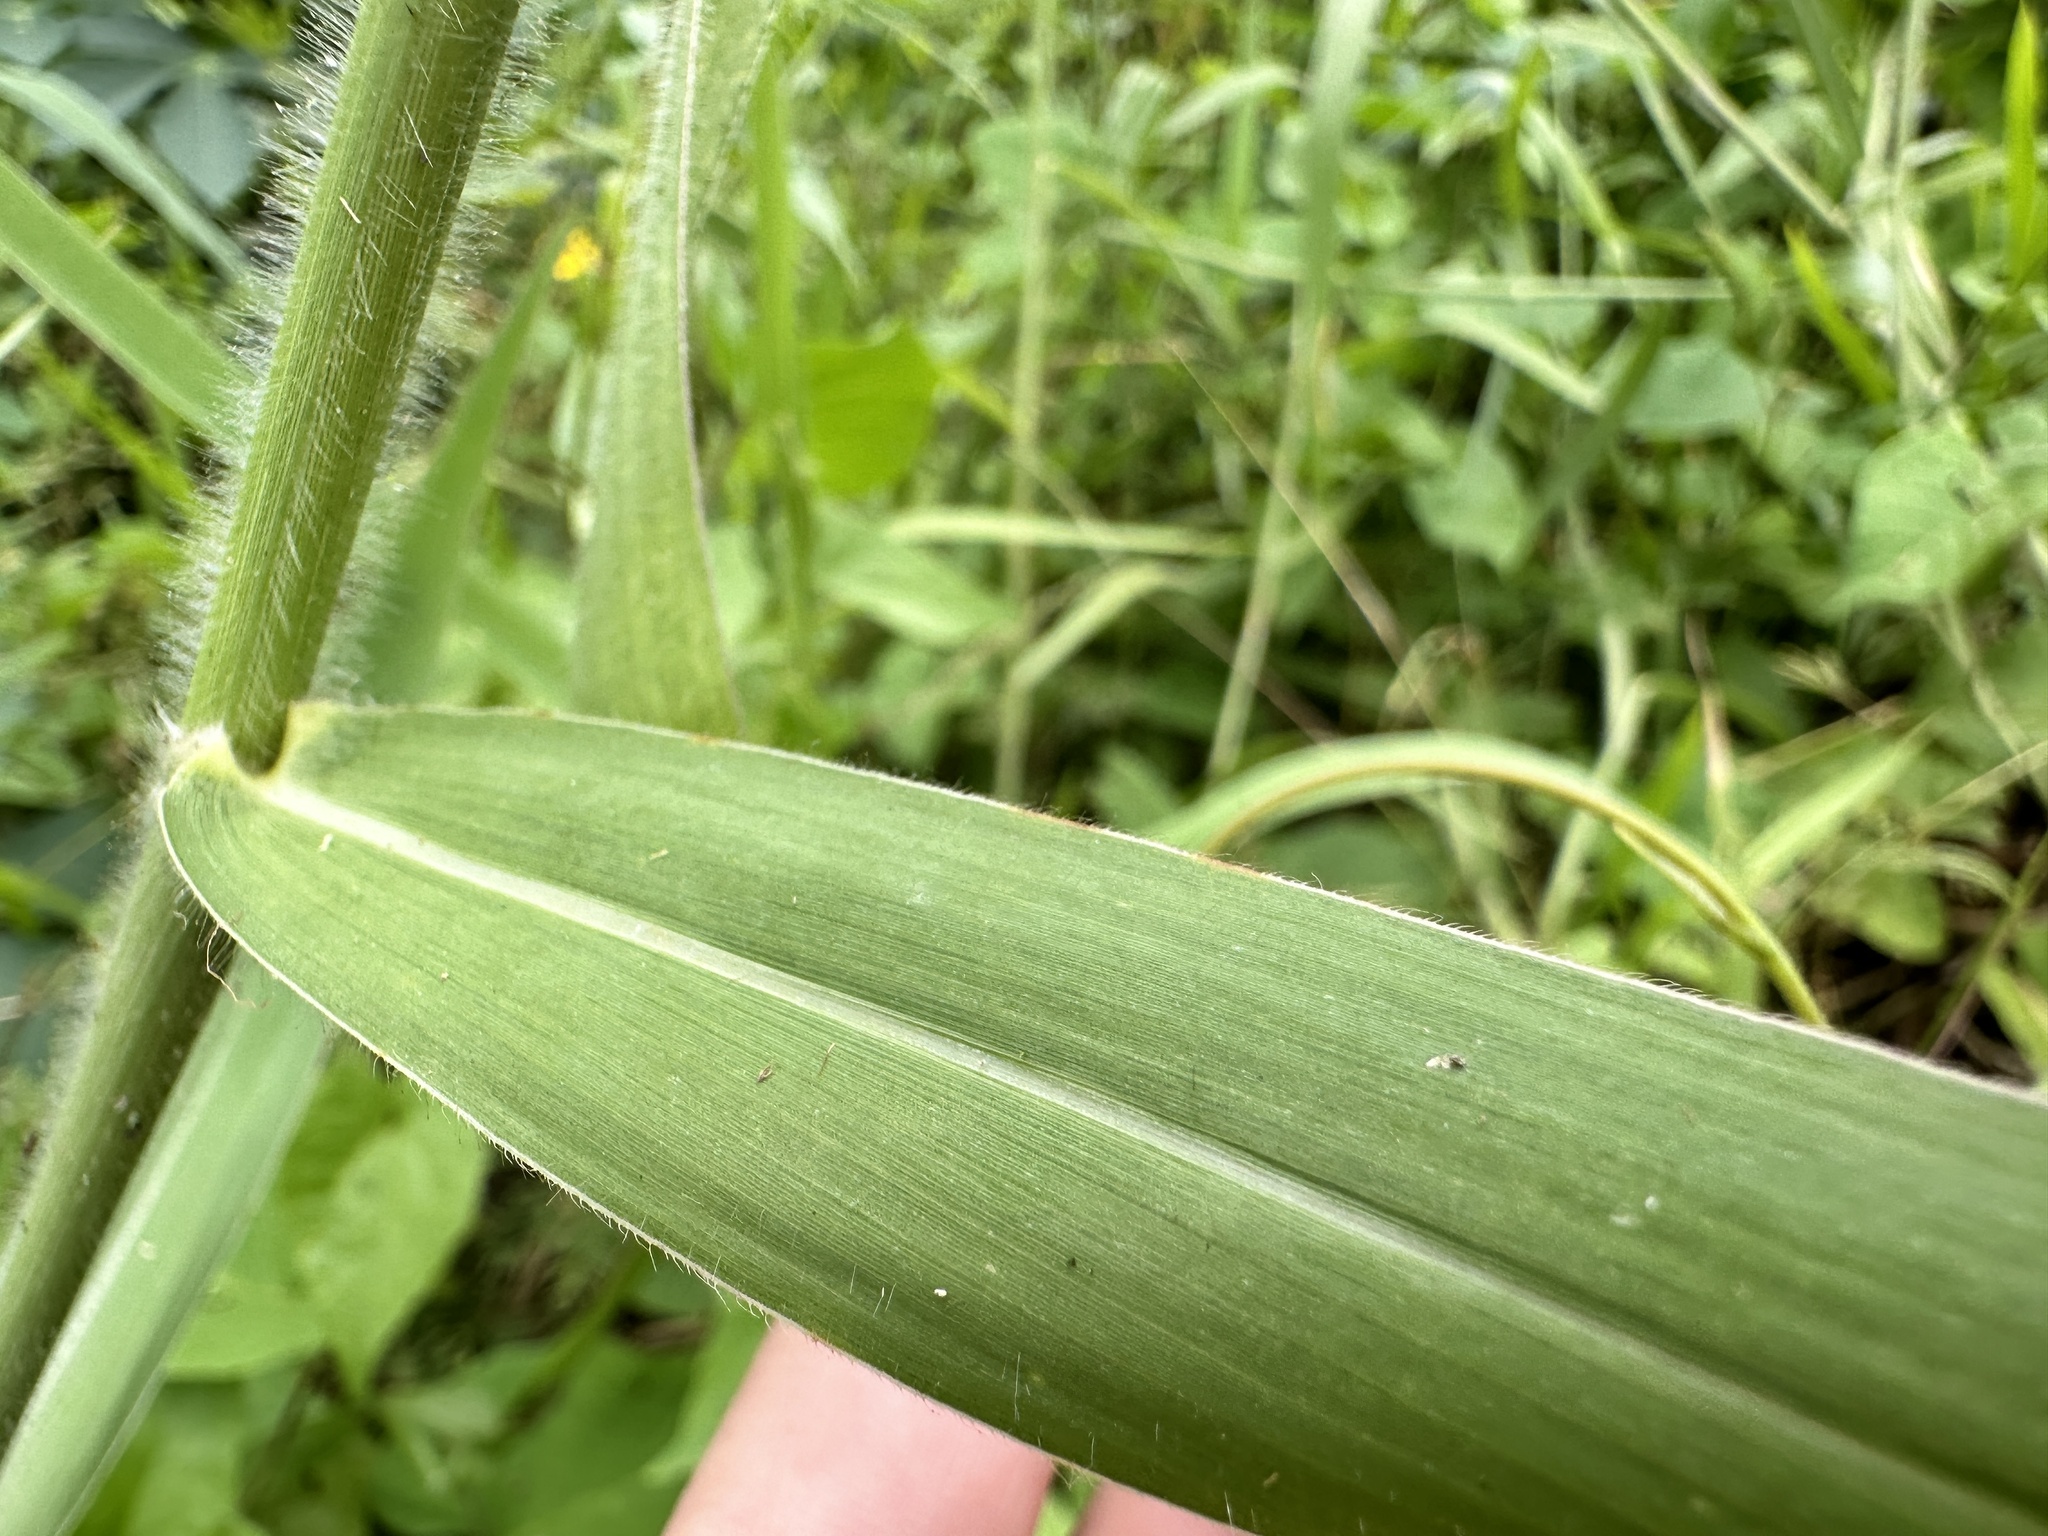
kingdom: Plantae
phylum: Tracheophyta
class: Liliopsida
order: Poales
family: Poaceae
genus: Urochloa
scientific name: Urochloa mutica
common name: Para grass
